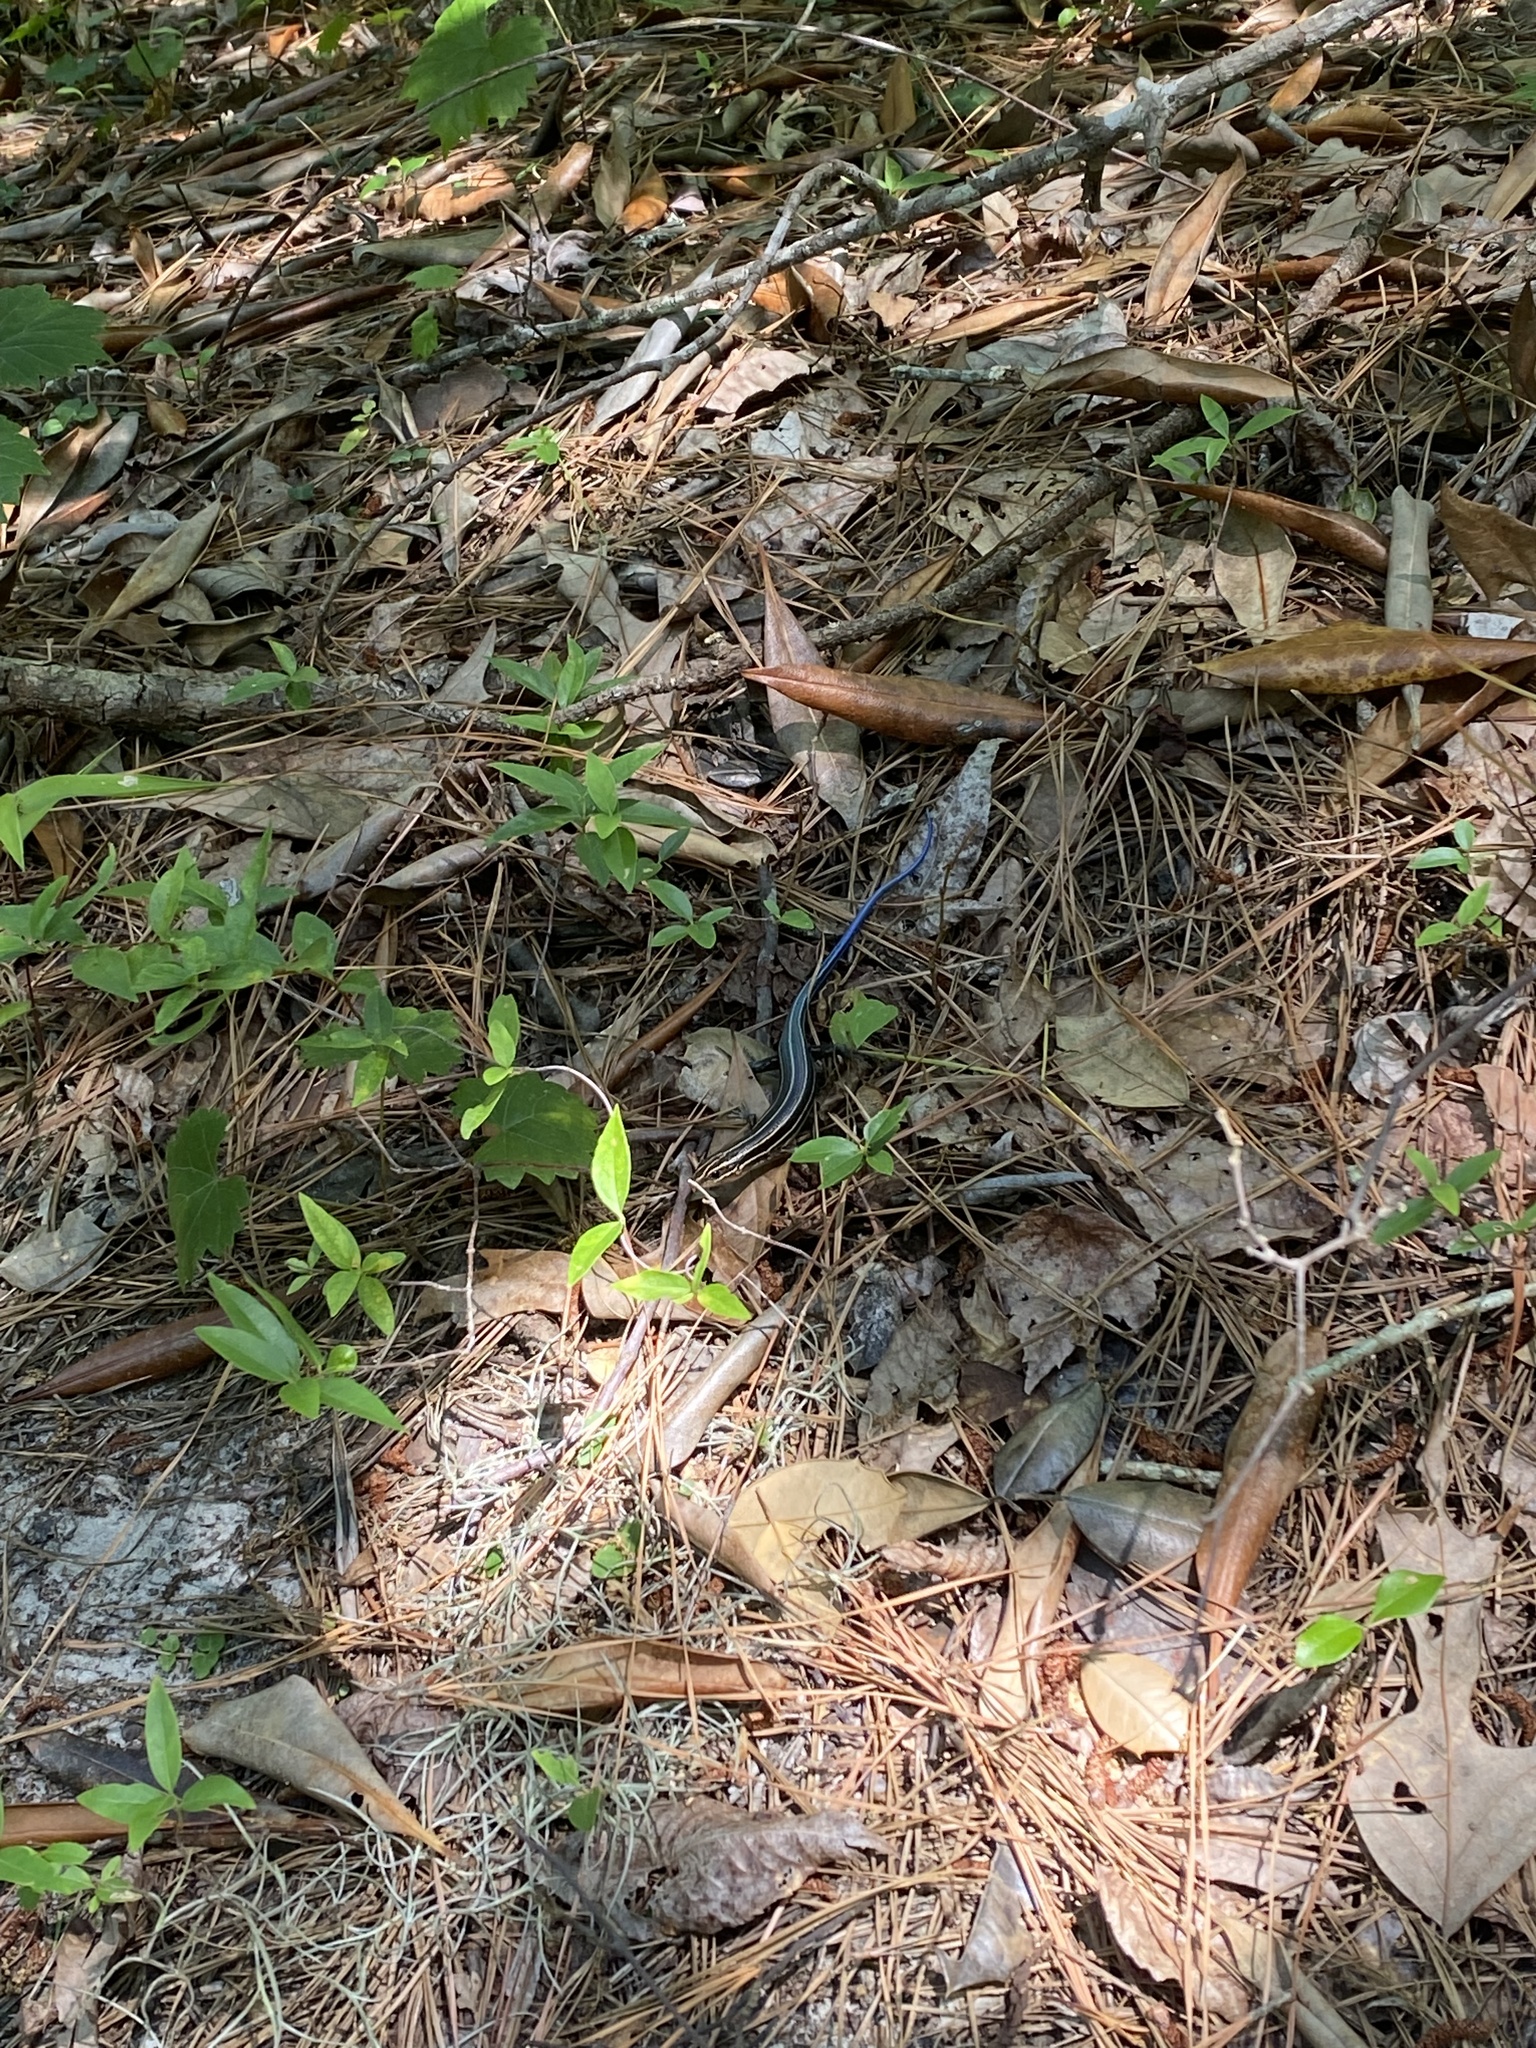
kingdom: Animalia
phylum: Chordata
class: Squamata
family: Scincidae
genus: Plestiodon
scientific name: Plestiodon laticeps
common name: Broadhead skink
